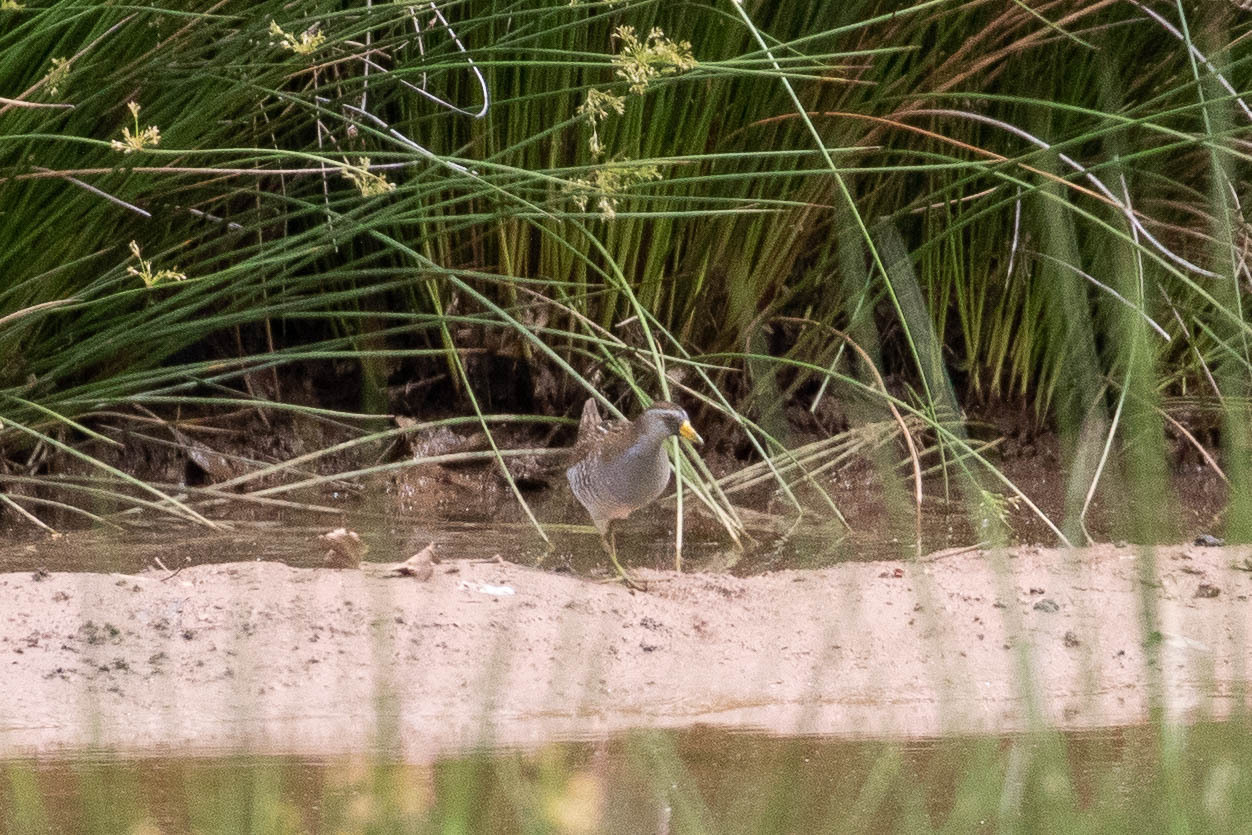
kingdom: Animalia
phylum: Chordata
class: Aves
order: Gruiformes
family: Rallidae
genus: Porzana
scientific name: Porzana carolina
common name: Sora
